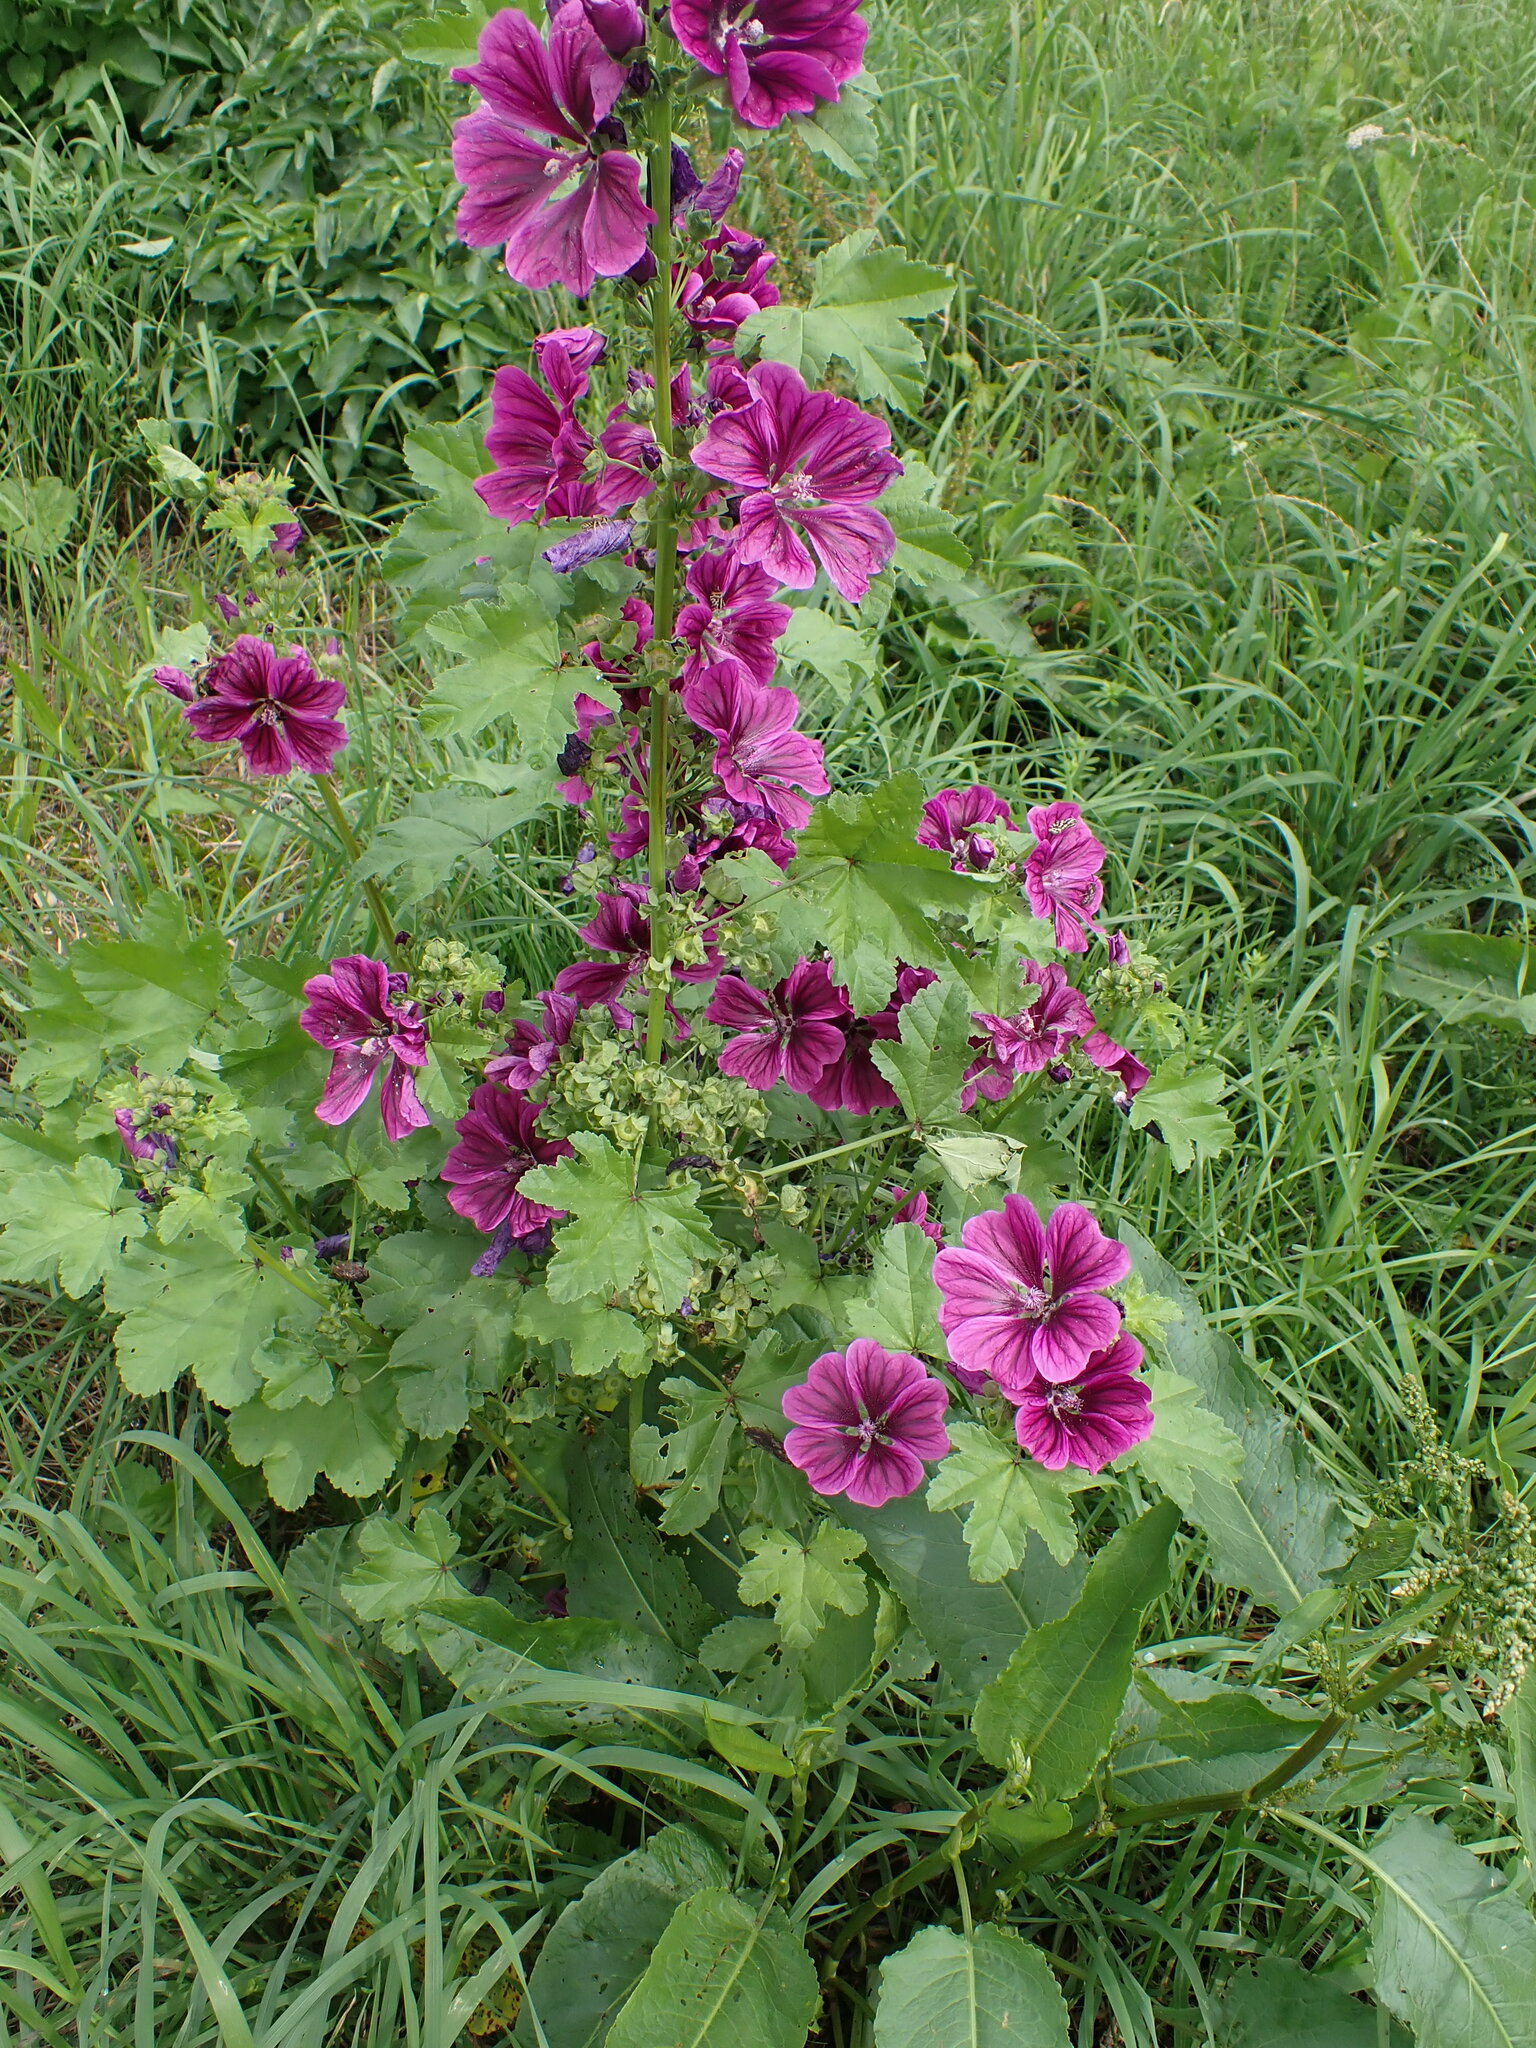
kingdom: Plantae
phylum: Tracheophyta
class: Magnoliopsida
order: Malvales
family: Malvaceae
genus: Malva
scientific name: Malva sylvestris
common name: Common mallow
